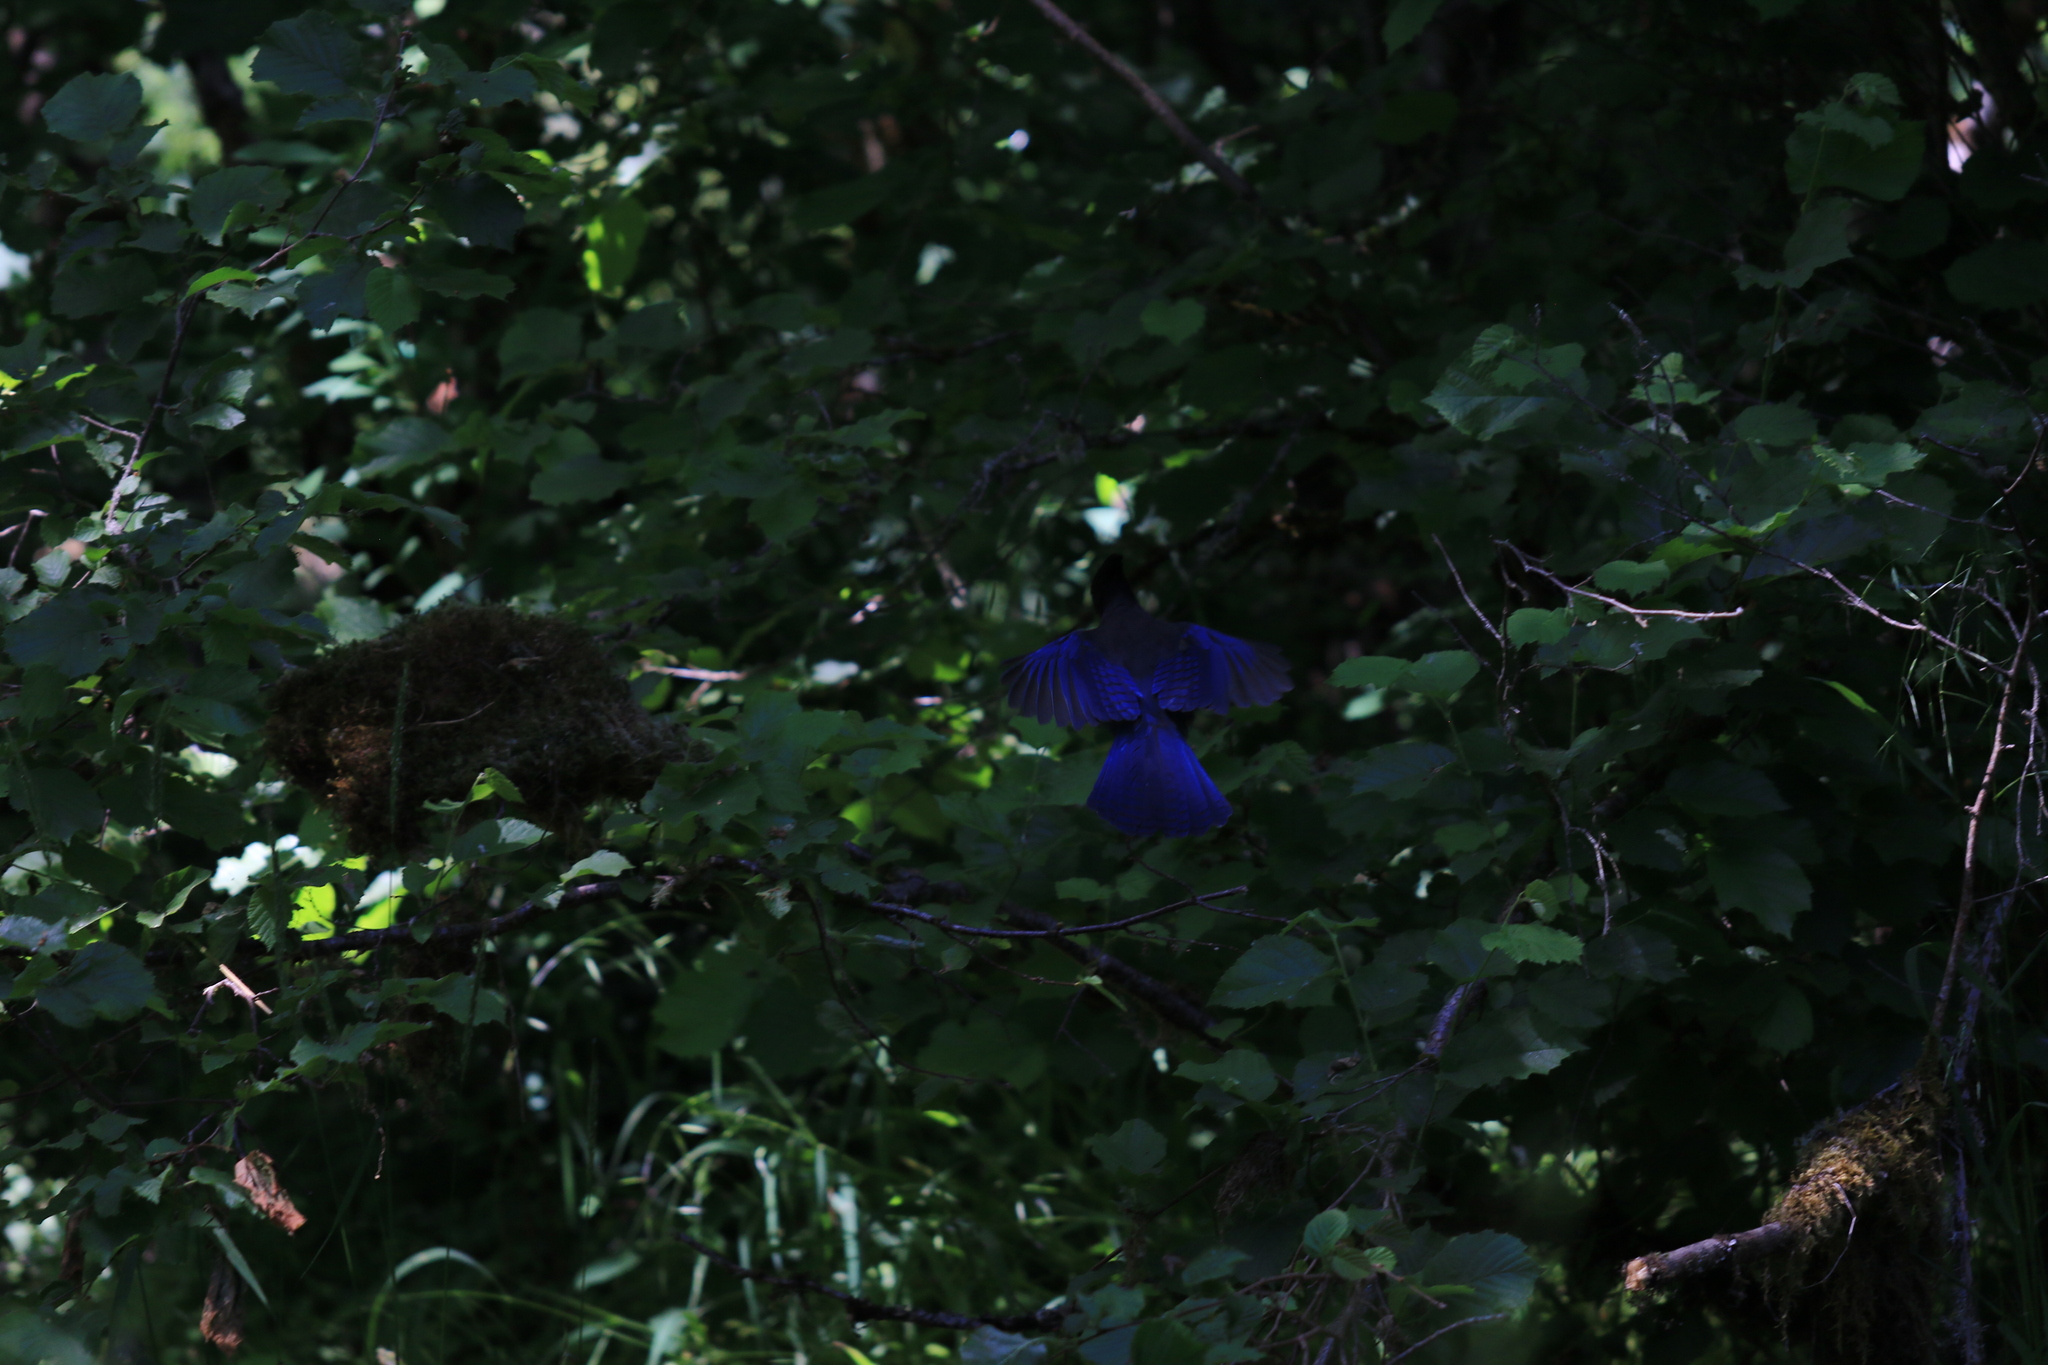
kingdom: Animalia
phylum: Chordata
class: Aves
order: Passeriformes
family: Corvidae
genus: Cyanocitta
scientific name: Cyanocitta stelleri
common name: Steller's jay
